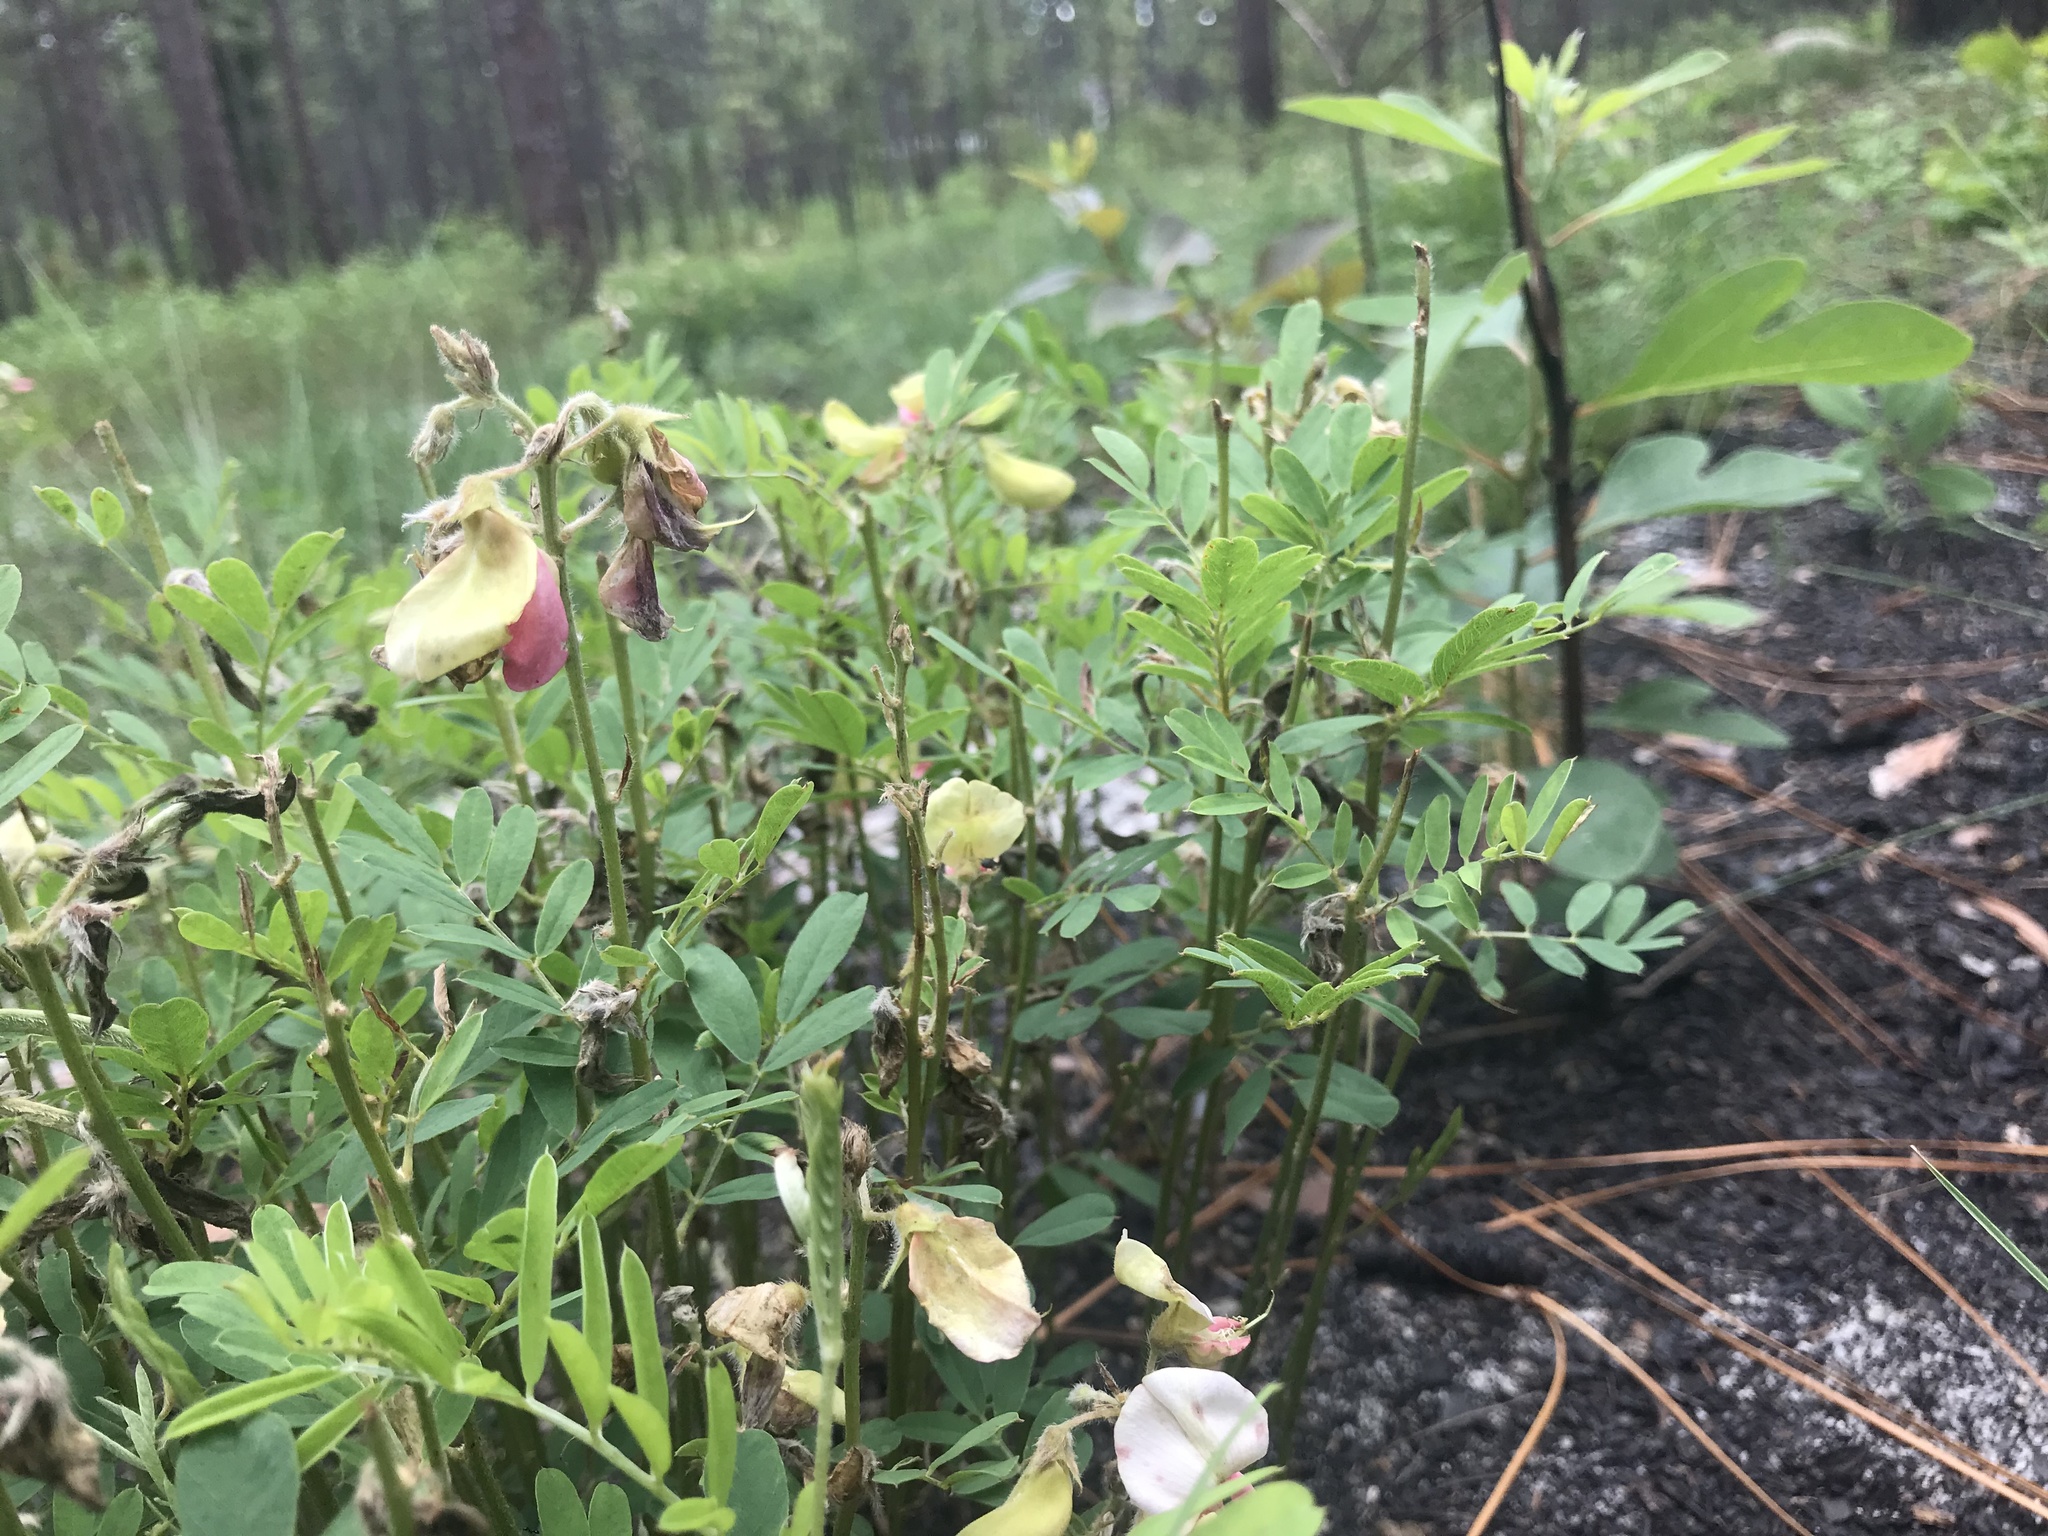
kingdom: Plantae
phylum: Tracheophyta
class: Magnoliopsida
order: Fabales
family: Fabaceae
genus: Tephrosia
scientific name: Tephrosia virginiana
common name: Rabbit-pea
